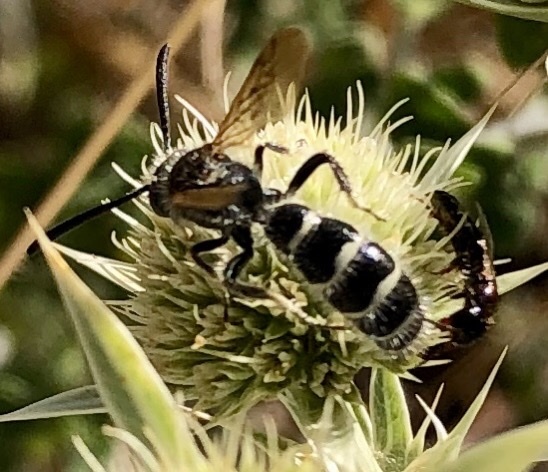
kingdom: Animalia
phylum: Arthropoda
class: Insecta
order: Hymenoptera
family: Scoliidae
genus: Colpa
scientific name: Colpa quinquecincta
